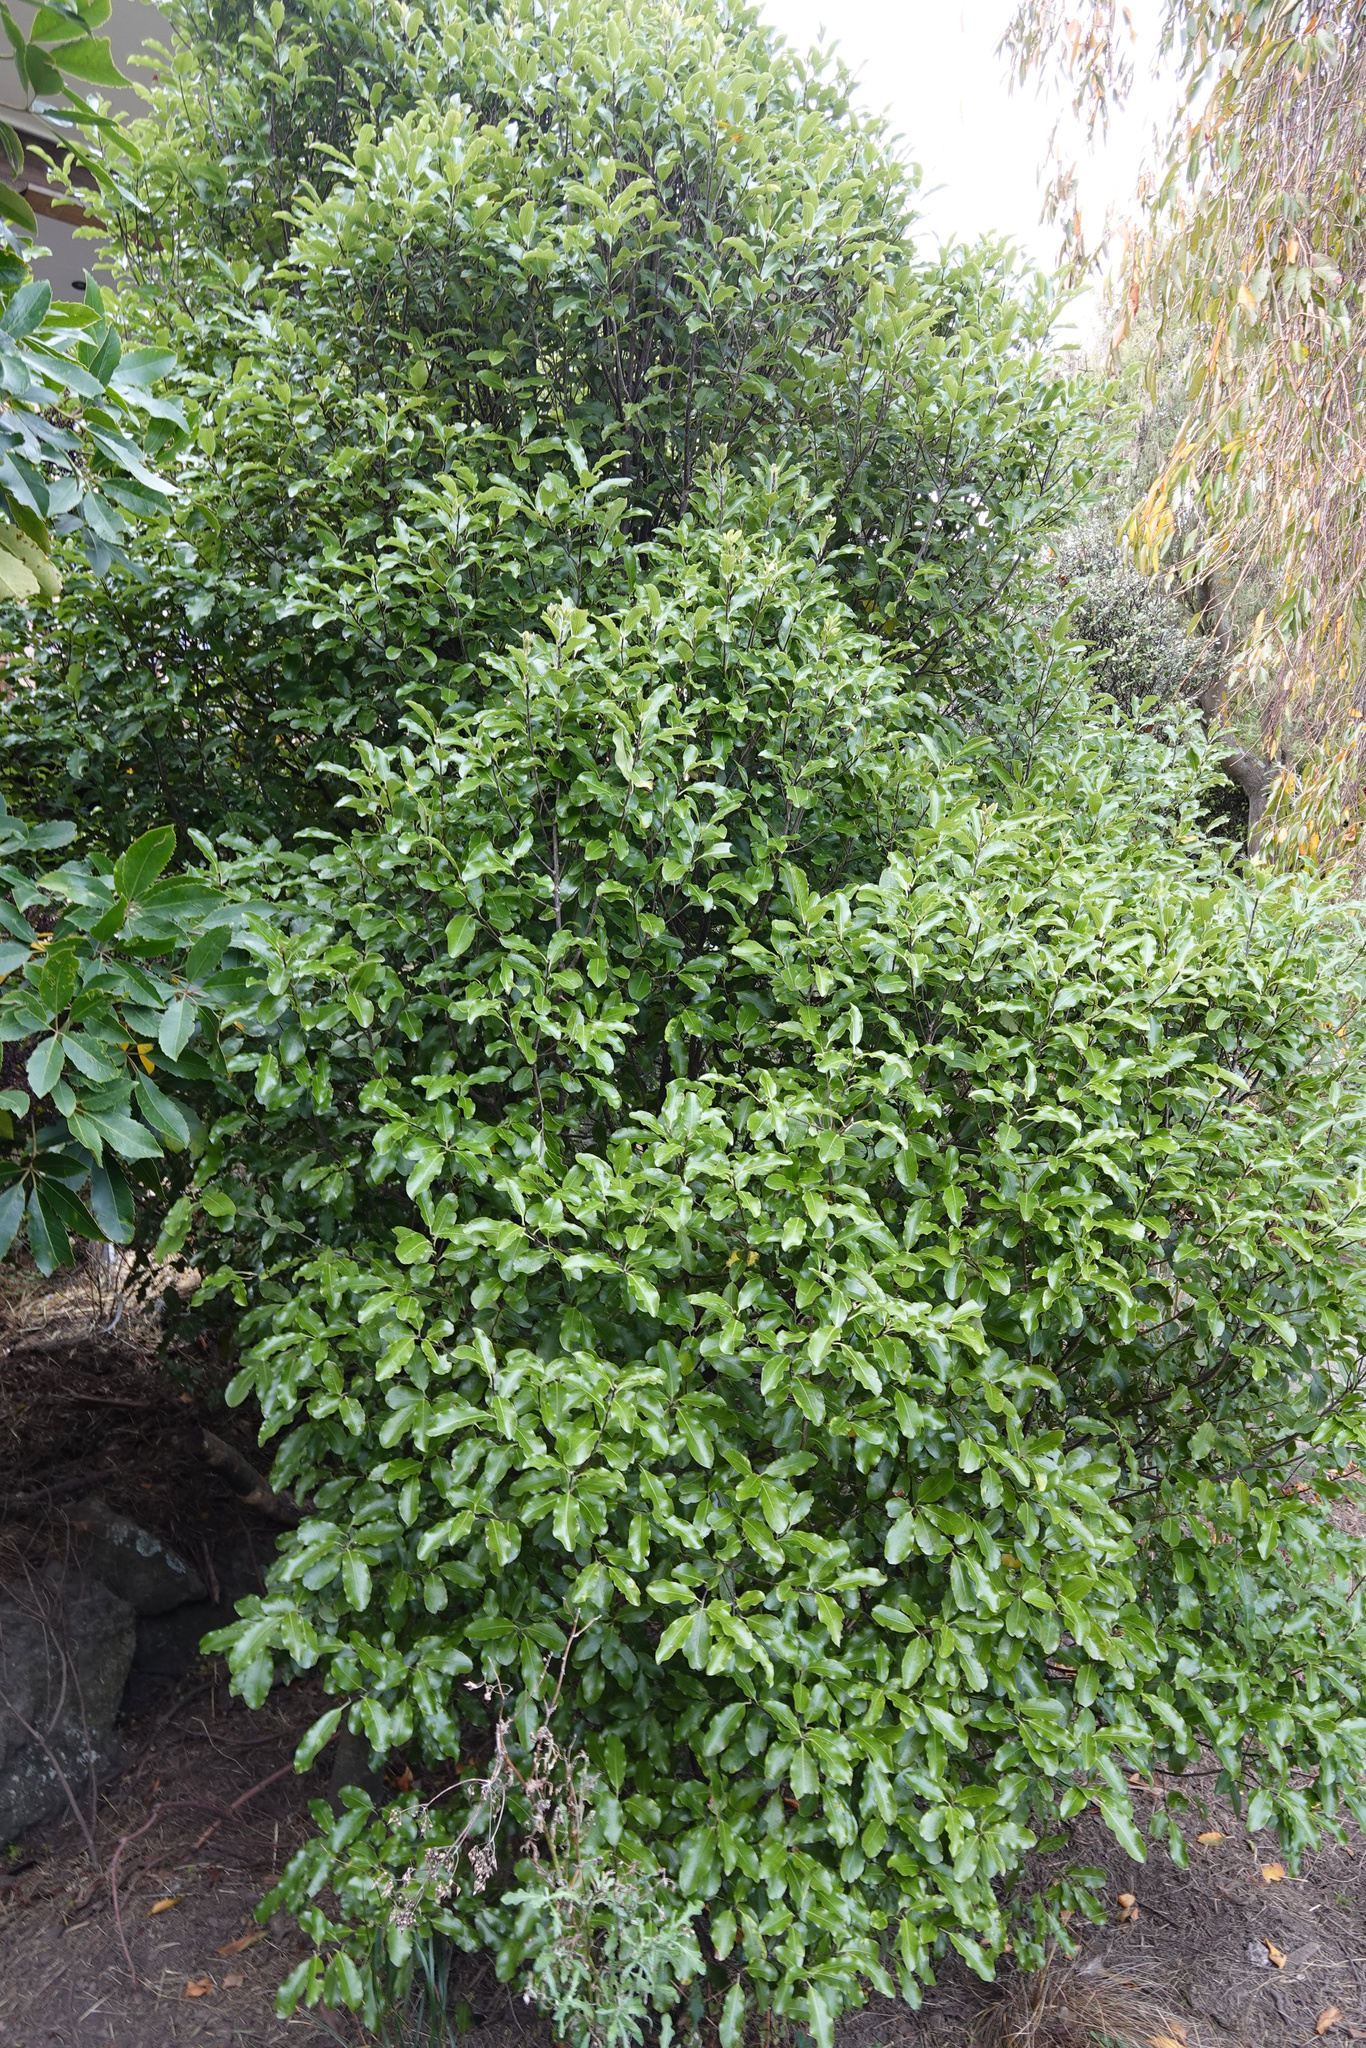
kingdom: Plantae
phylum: Tracheophyta
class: Magnoliopsida
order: Apiales
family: Pittosporaceae
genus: Pittosporum
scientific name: Pittosporum tenuifolium
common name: Kohuhu
